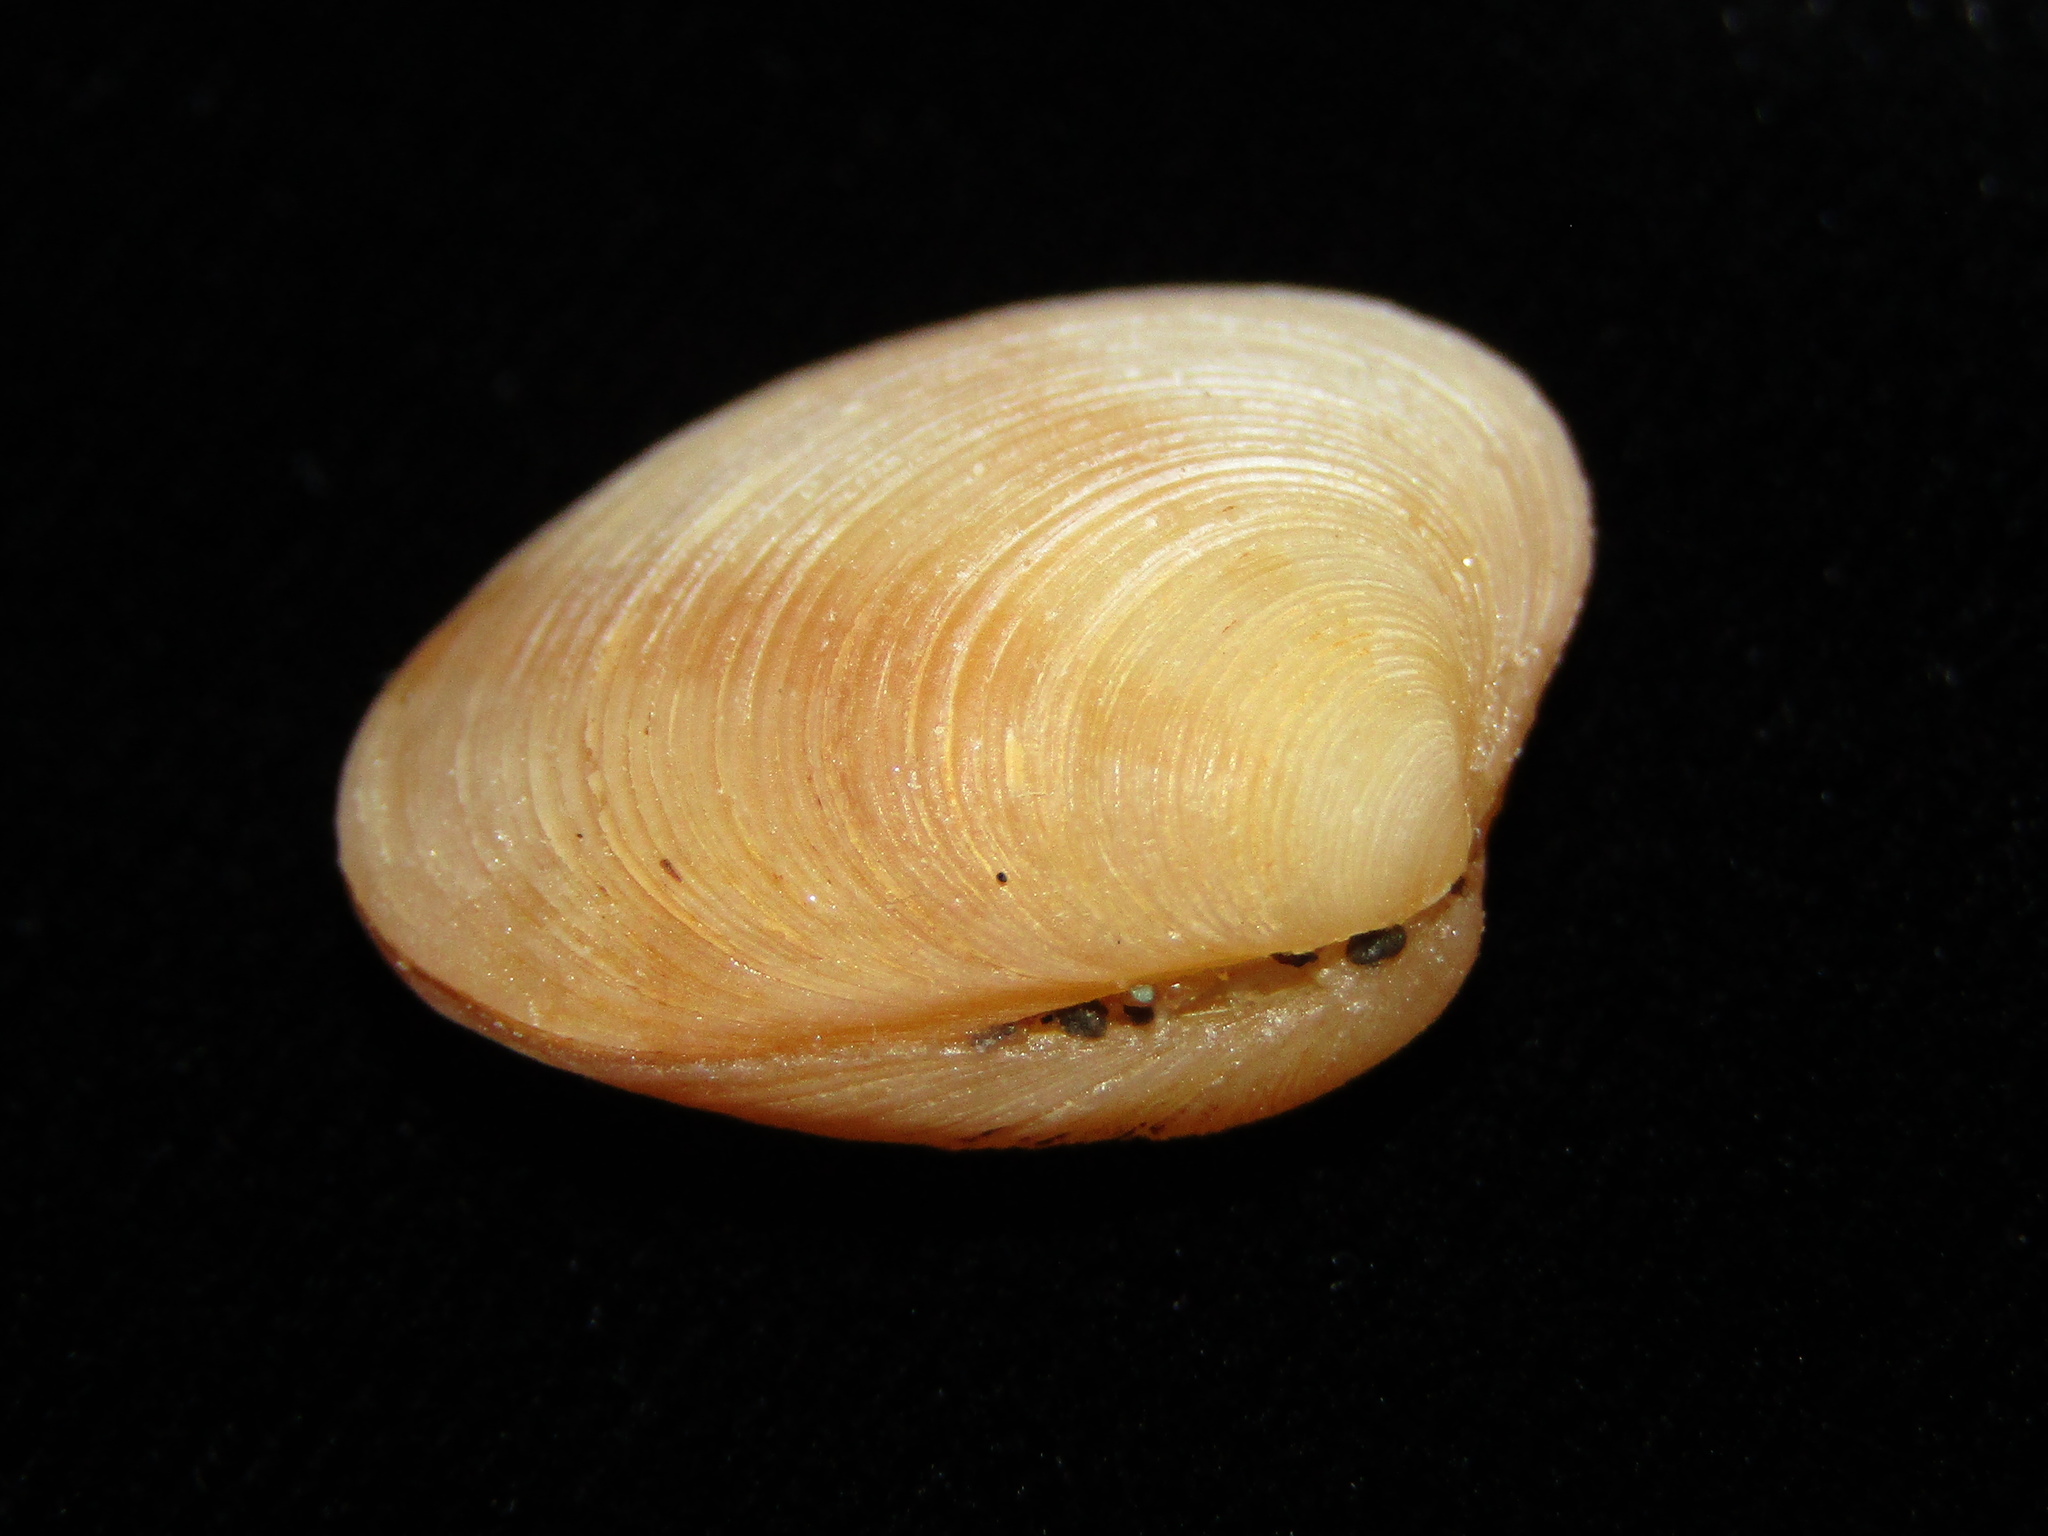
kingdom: Animalia
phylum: Mollusca
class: Bivalvia
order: Venerida
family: Veneridae
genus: Tawera
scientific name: Tawera spissa
